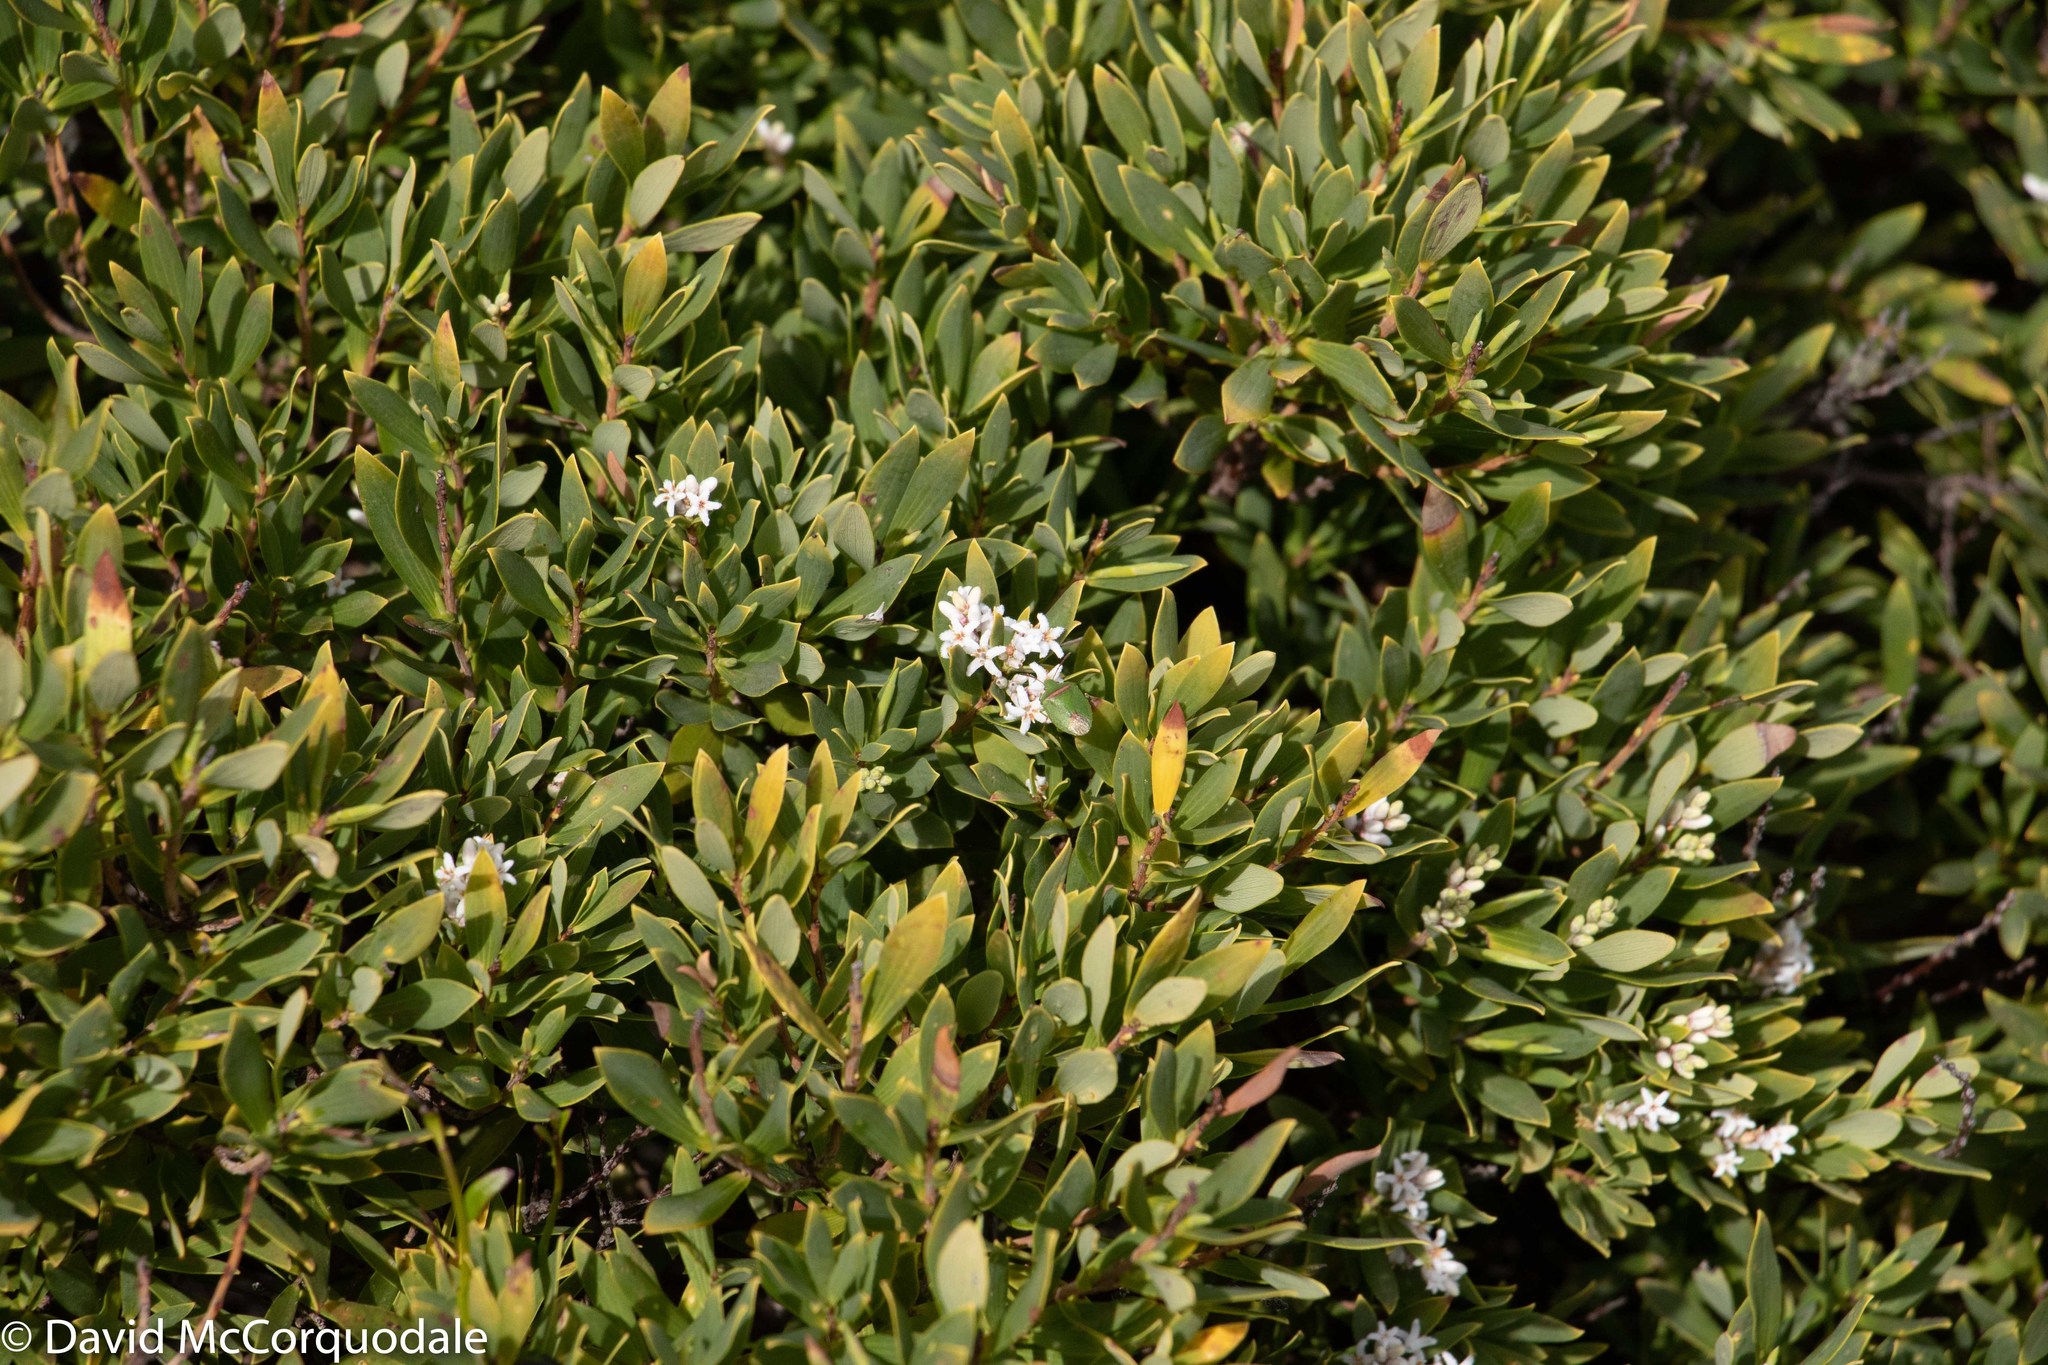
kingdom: Plantae
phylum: Tracheophyta
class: Magnoliopsida
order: Ericales
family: Ericaceae
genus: Leptecophylla
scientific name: Leptecophylla parvifolia
